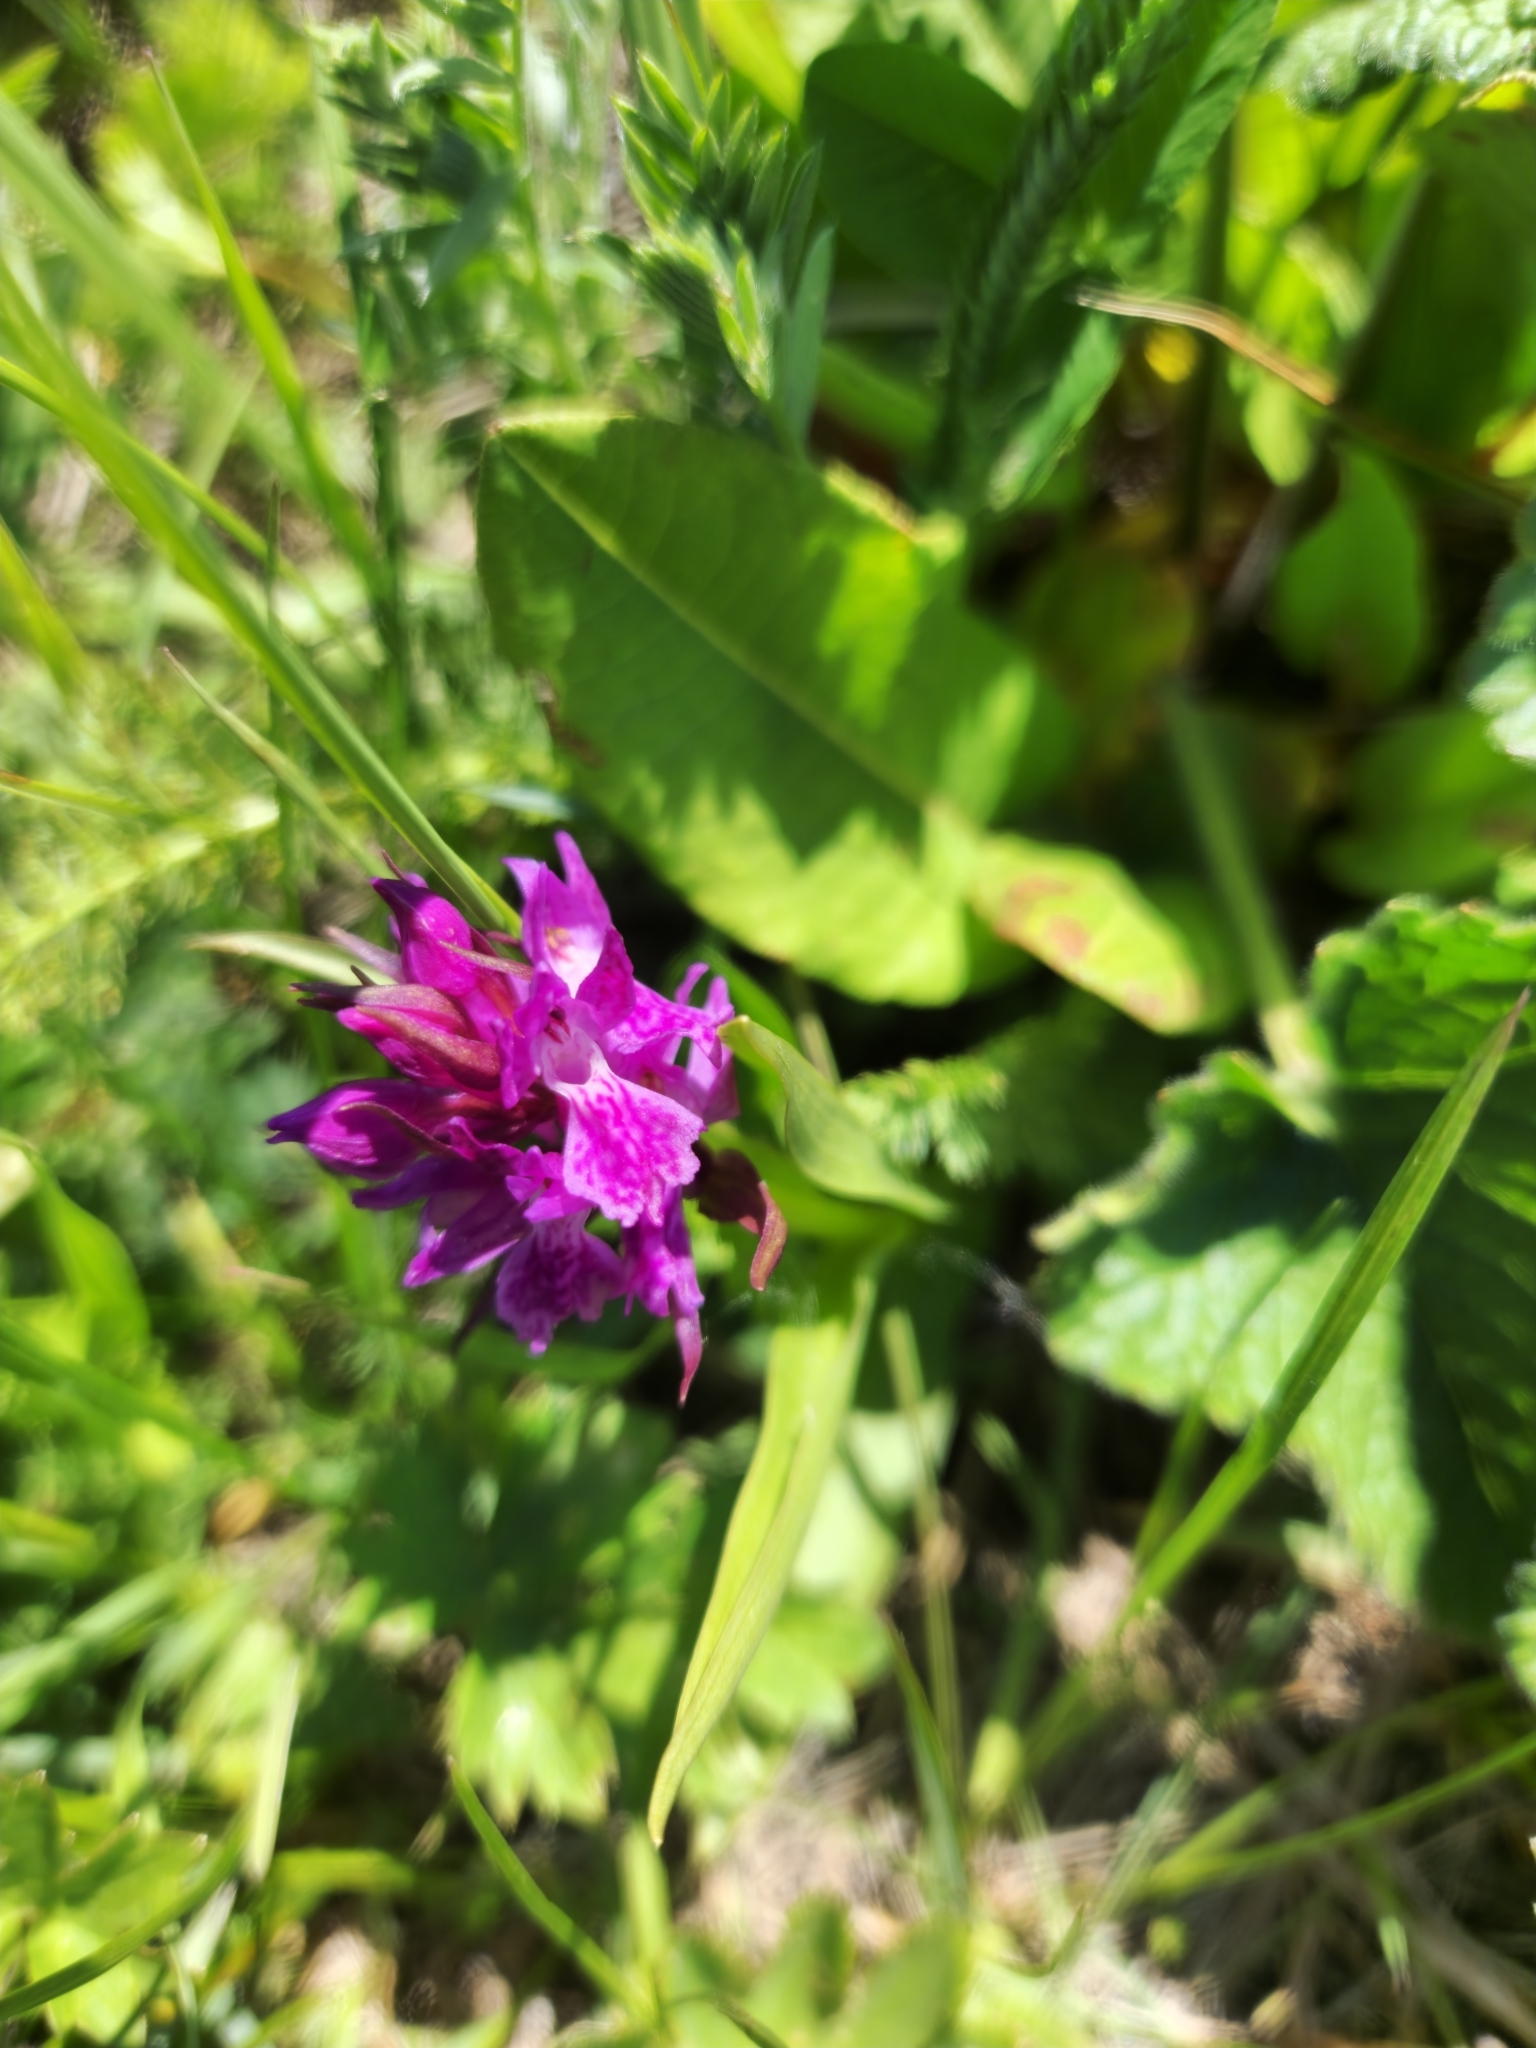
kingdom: Plantae
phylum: Tracheophyta
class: Liliopsida
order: Asparagales
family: Orchidaceae
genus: Dactylorhiza
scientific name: Dactylorhiza euxina
